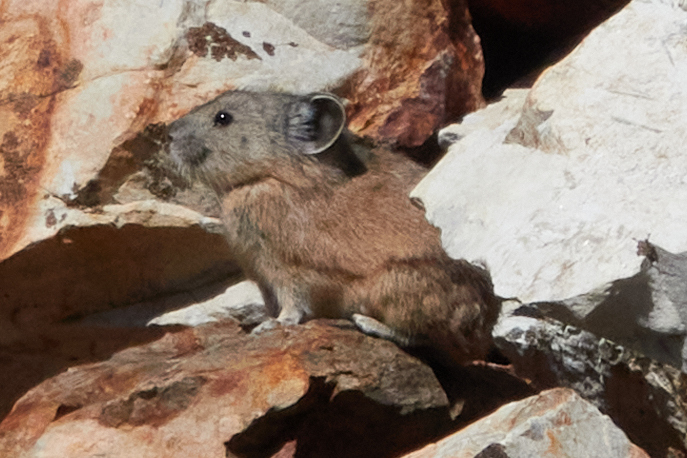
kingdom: Animalia
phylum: Chordata
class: Mammalia
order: Lagomorpha
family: Ochotonidae
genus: Ochotona
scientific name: Ochotona princeps
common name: American pika
